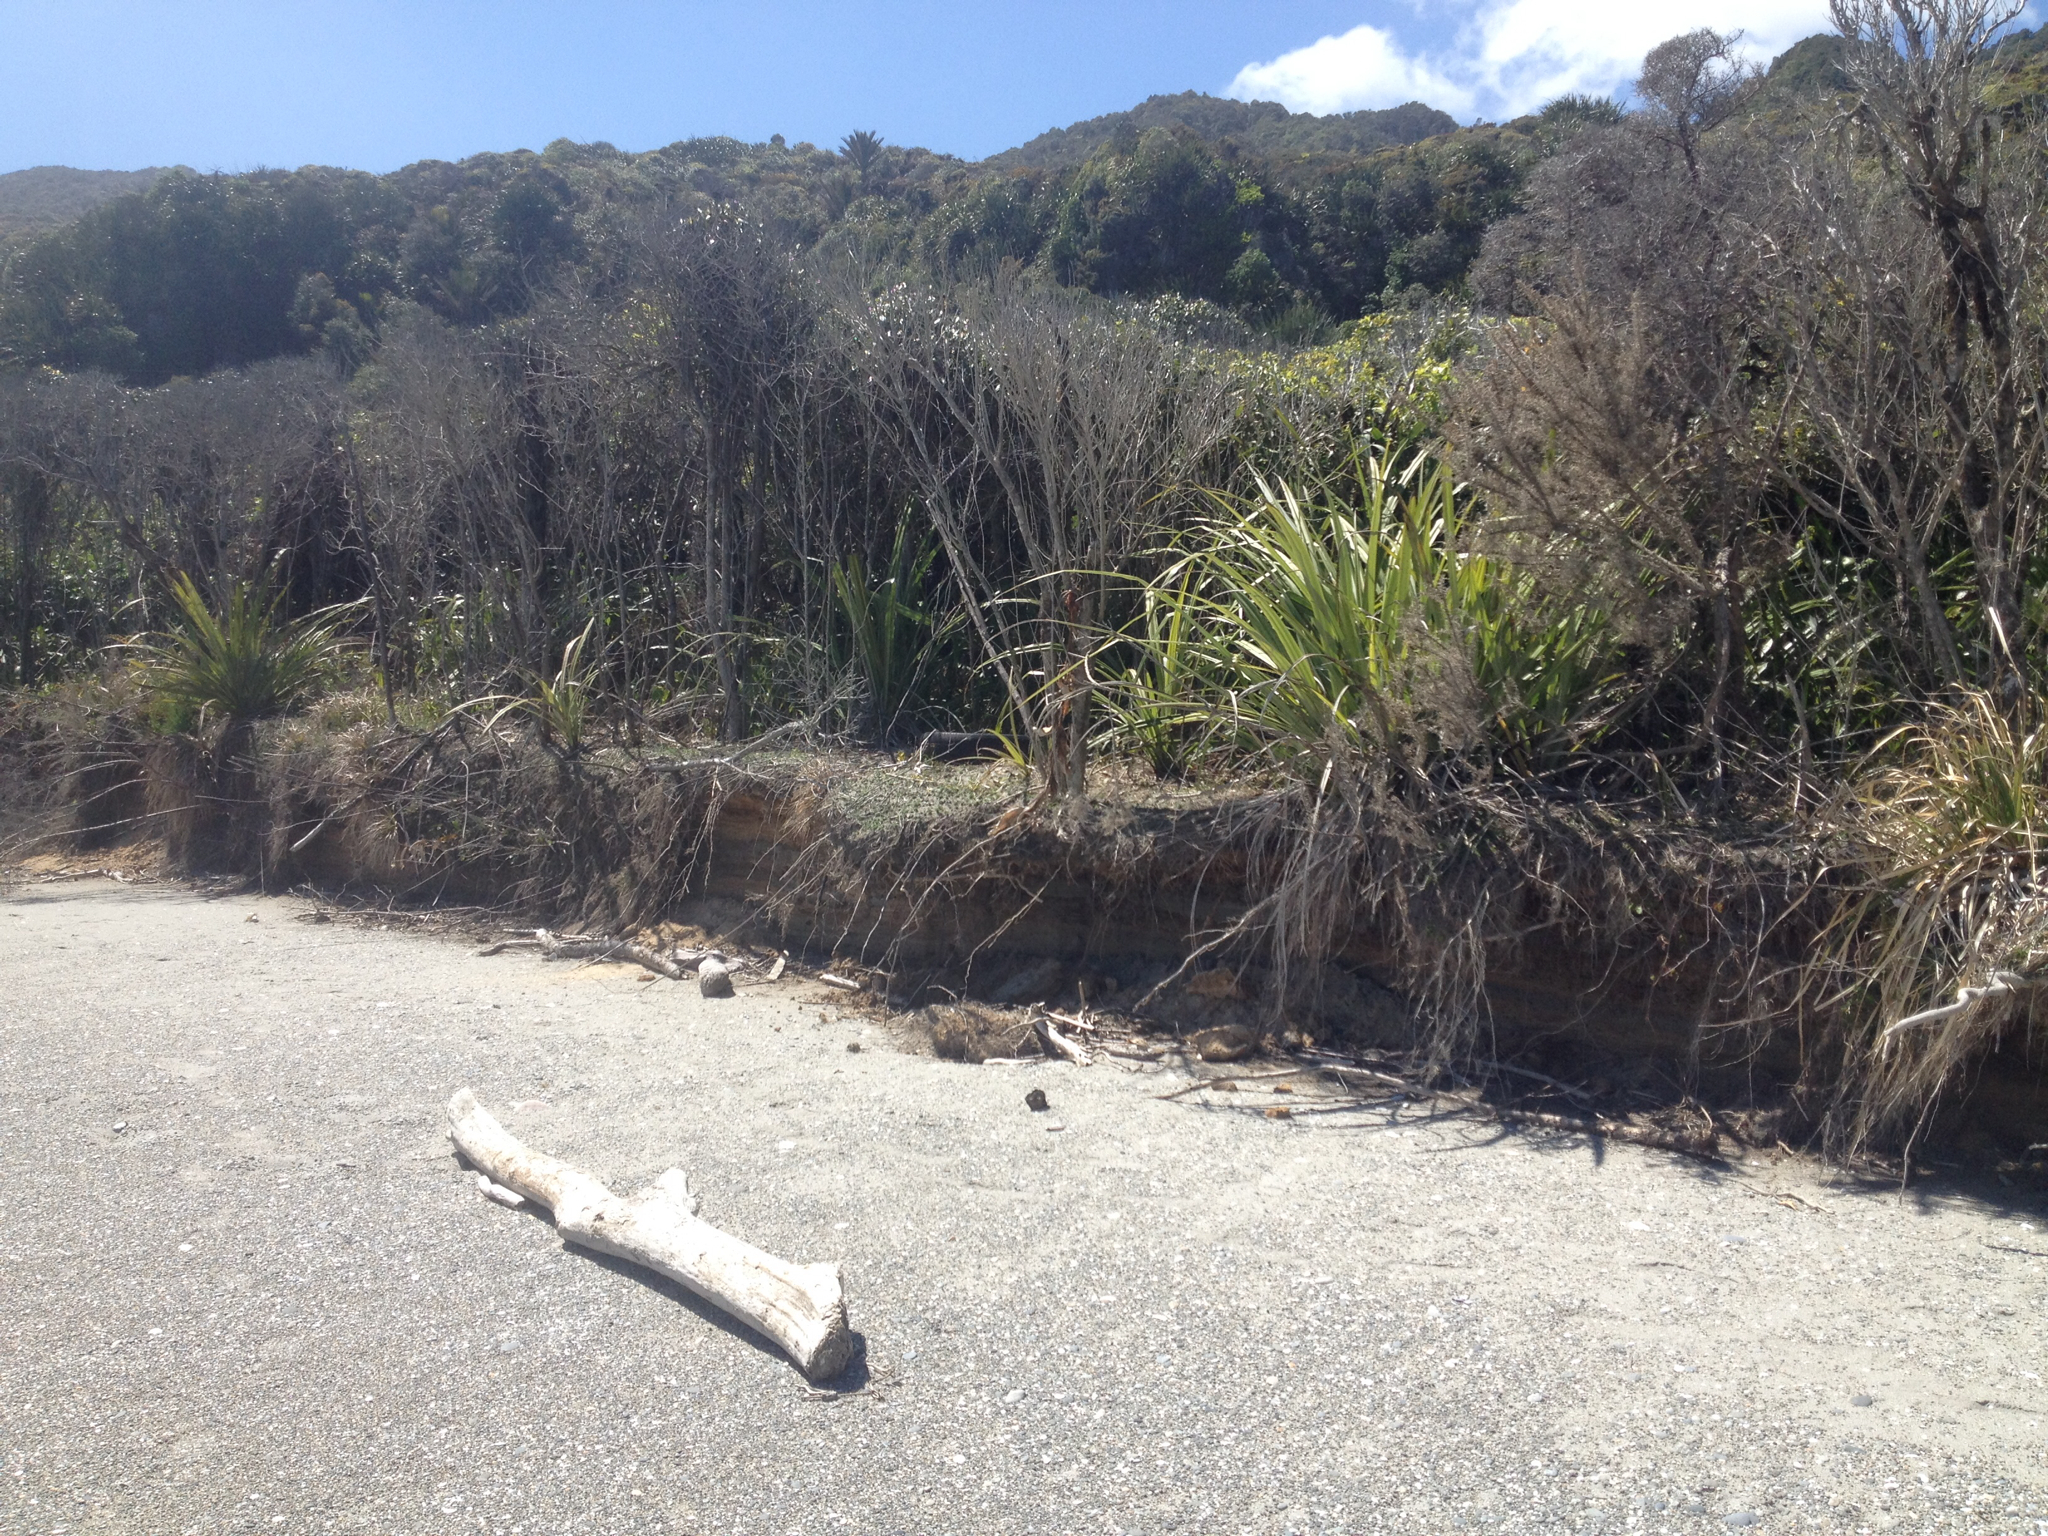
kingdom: Plantae
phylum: Tracheophyta
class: Liliopsida
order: Asparagales
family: Asteliaceae
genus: Astelia
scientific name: Astelia fragrans
